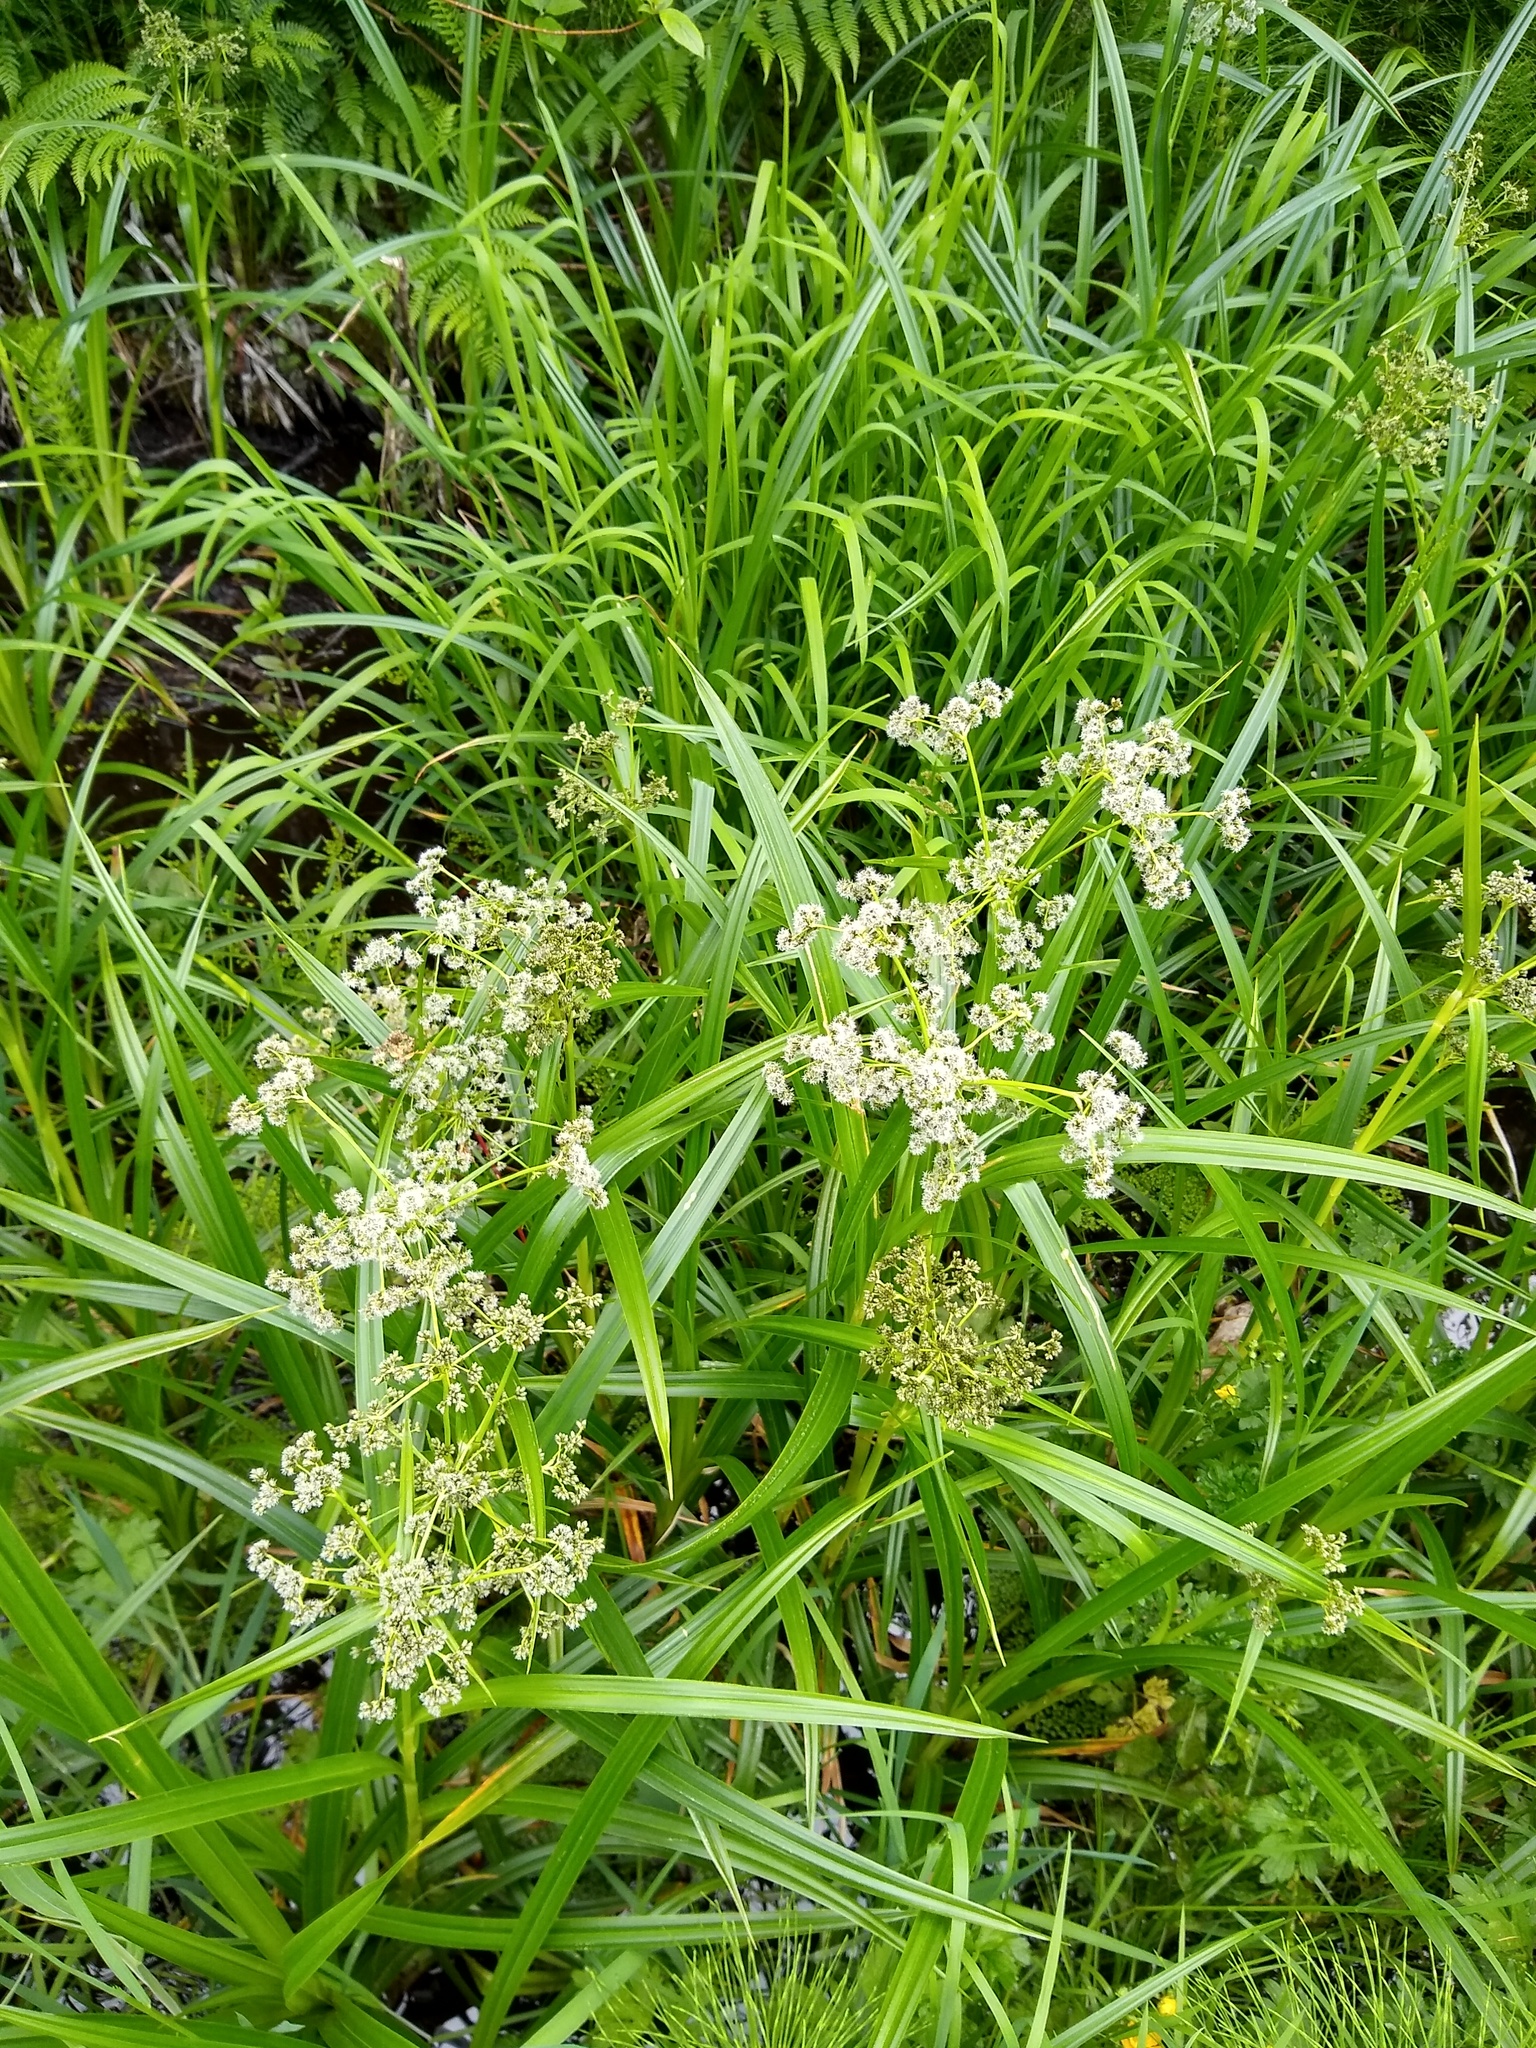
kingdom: Plantae
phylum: Tracheophyta
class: Liliopsida
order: Poales
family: Cyperaceae
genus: Scirpus
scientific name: Scirpus microcarpus
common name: Panicled bulrush
